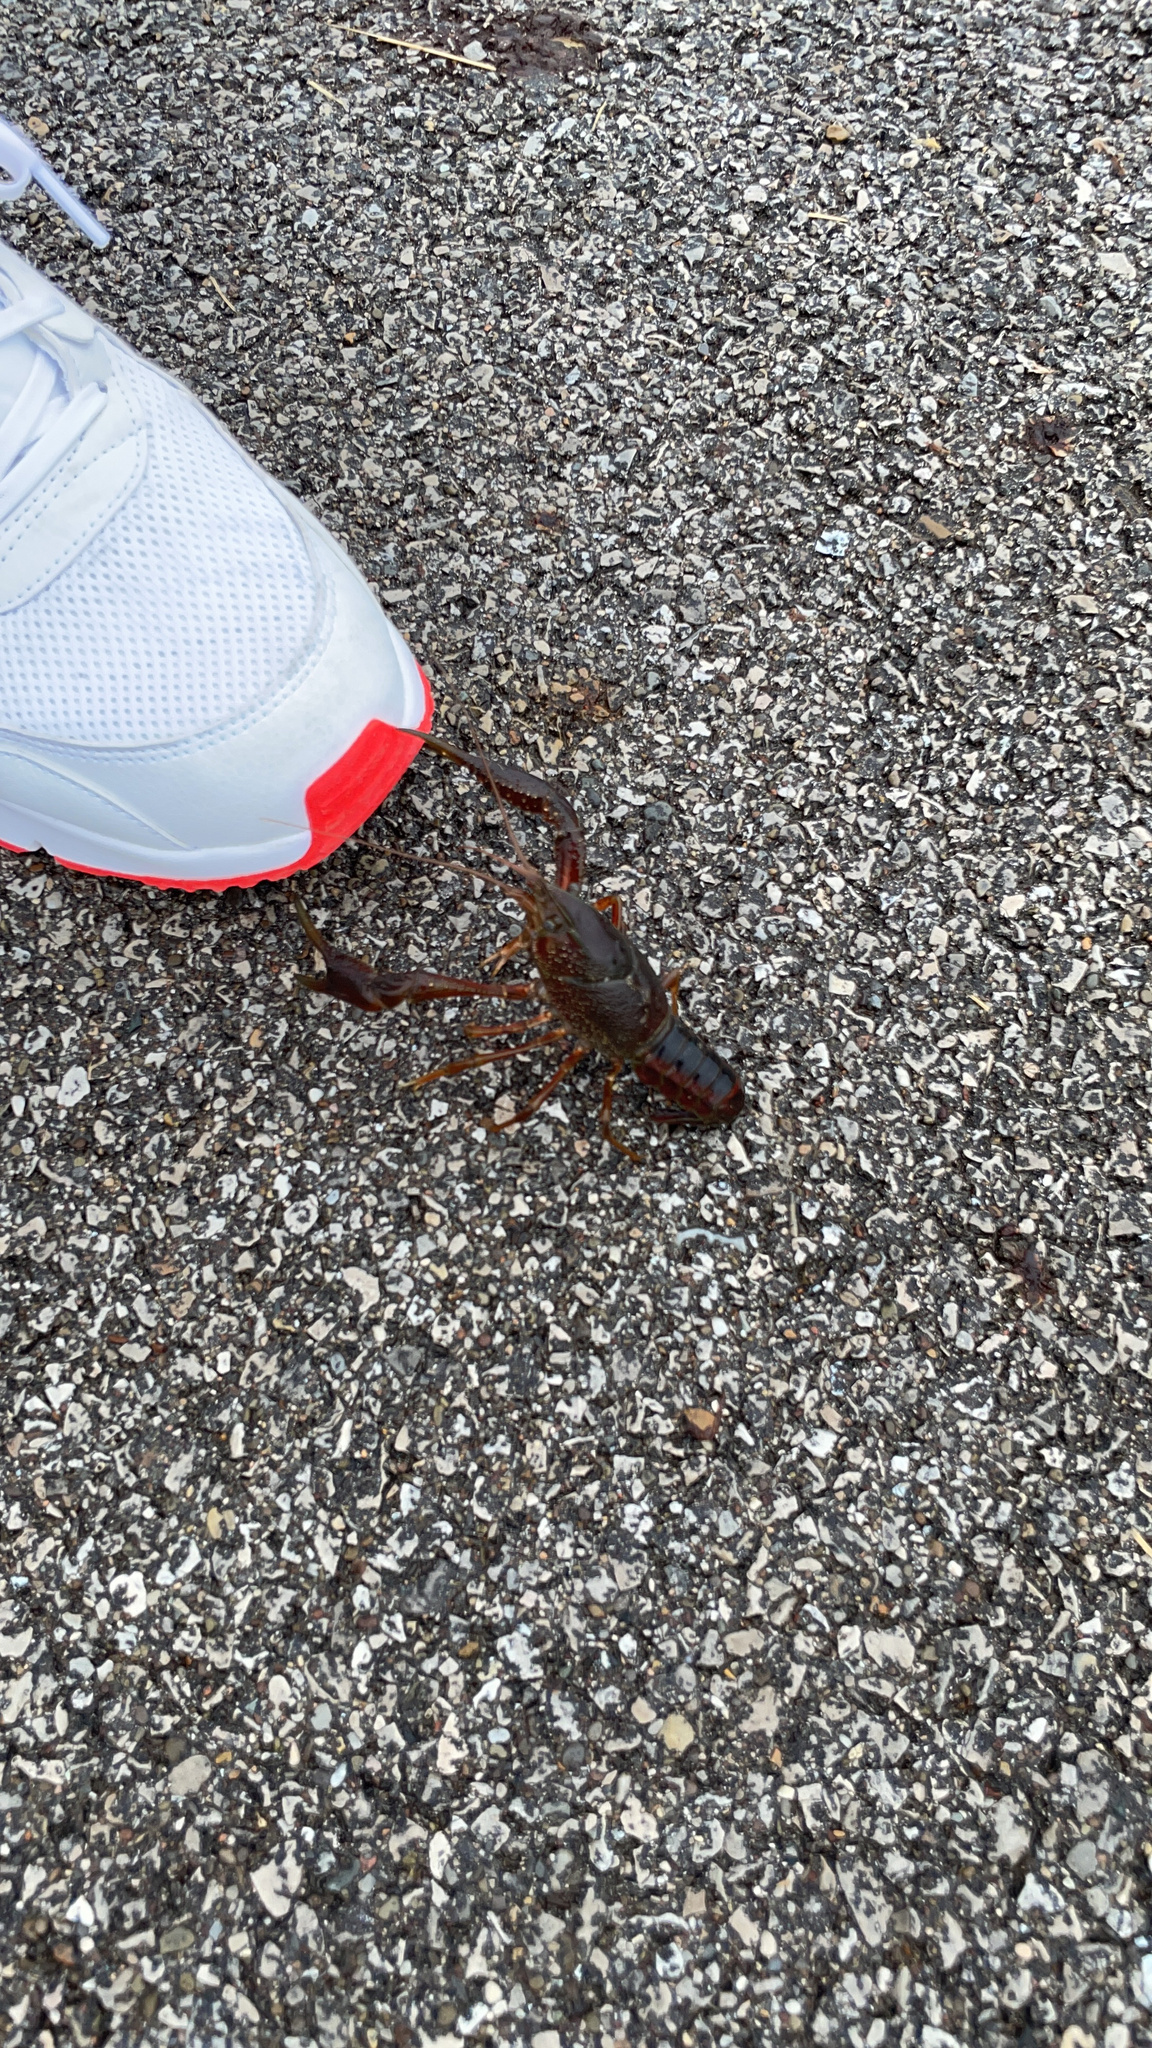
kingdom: Animalia
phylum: Arthropoda
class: Malacostraca
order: Decapoda
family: Cambaridae
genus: Procambarus
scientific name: Procambarus clarkii
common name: Red swamp crayfish
